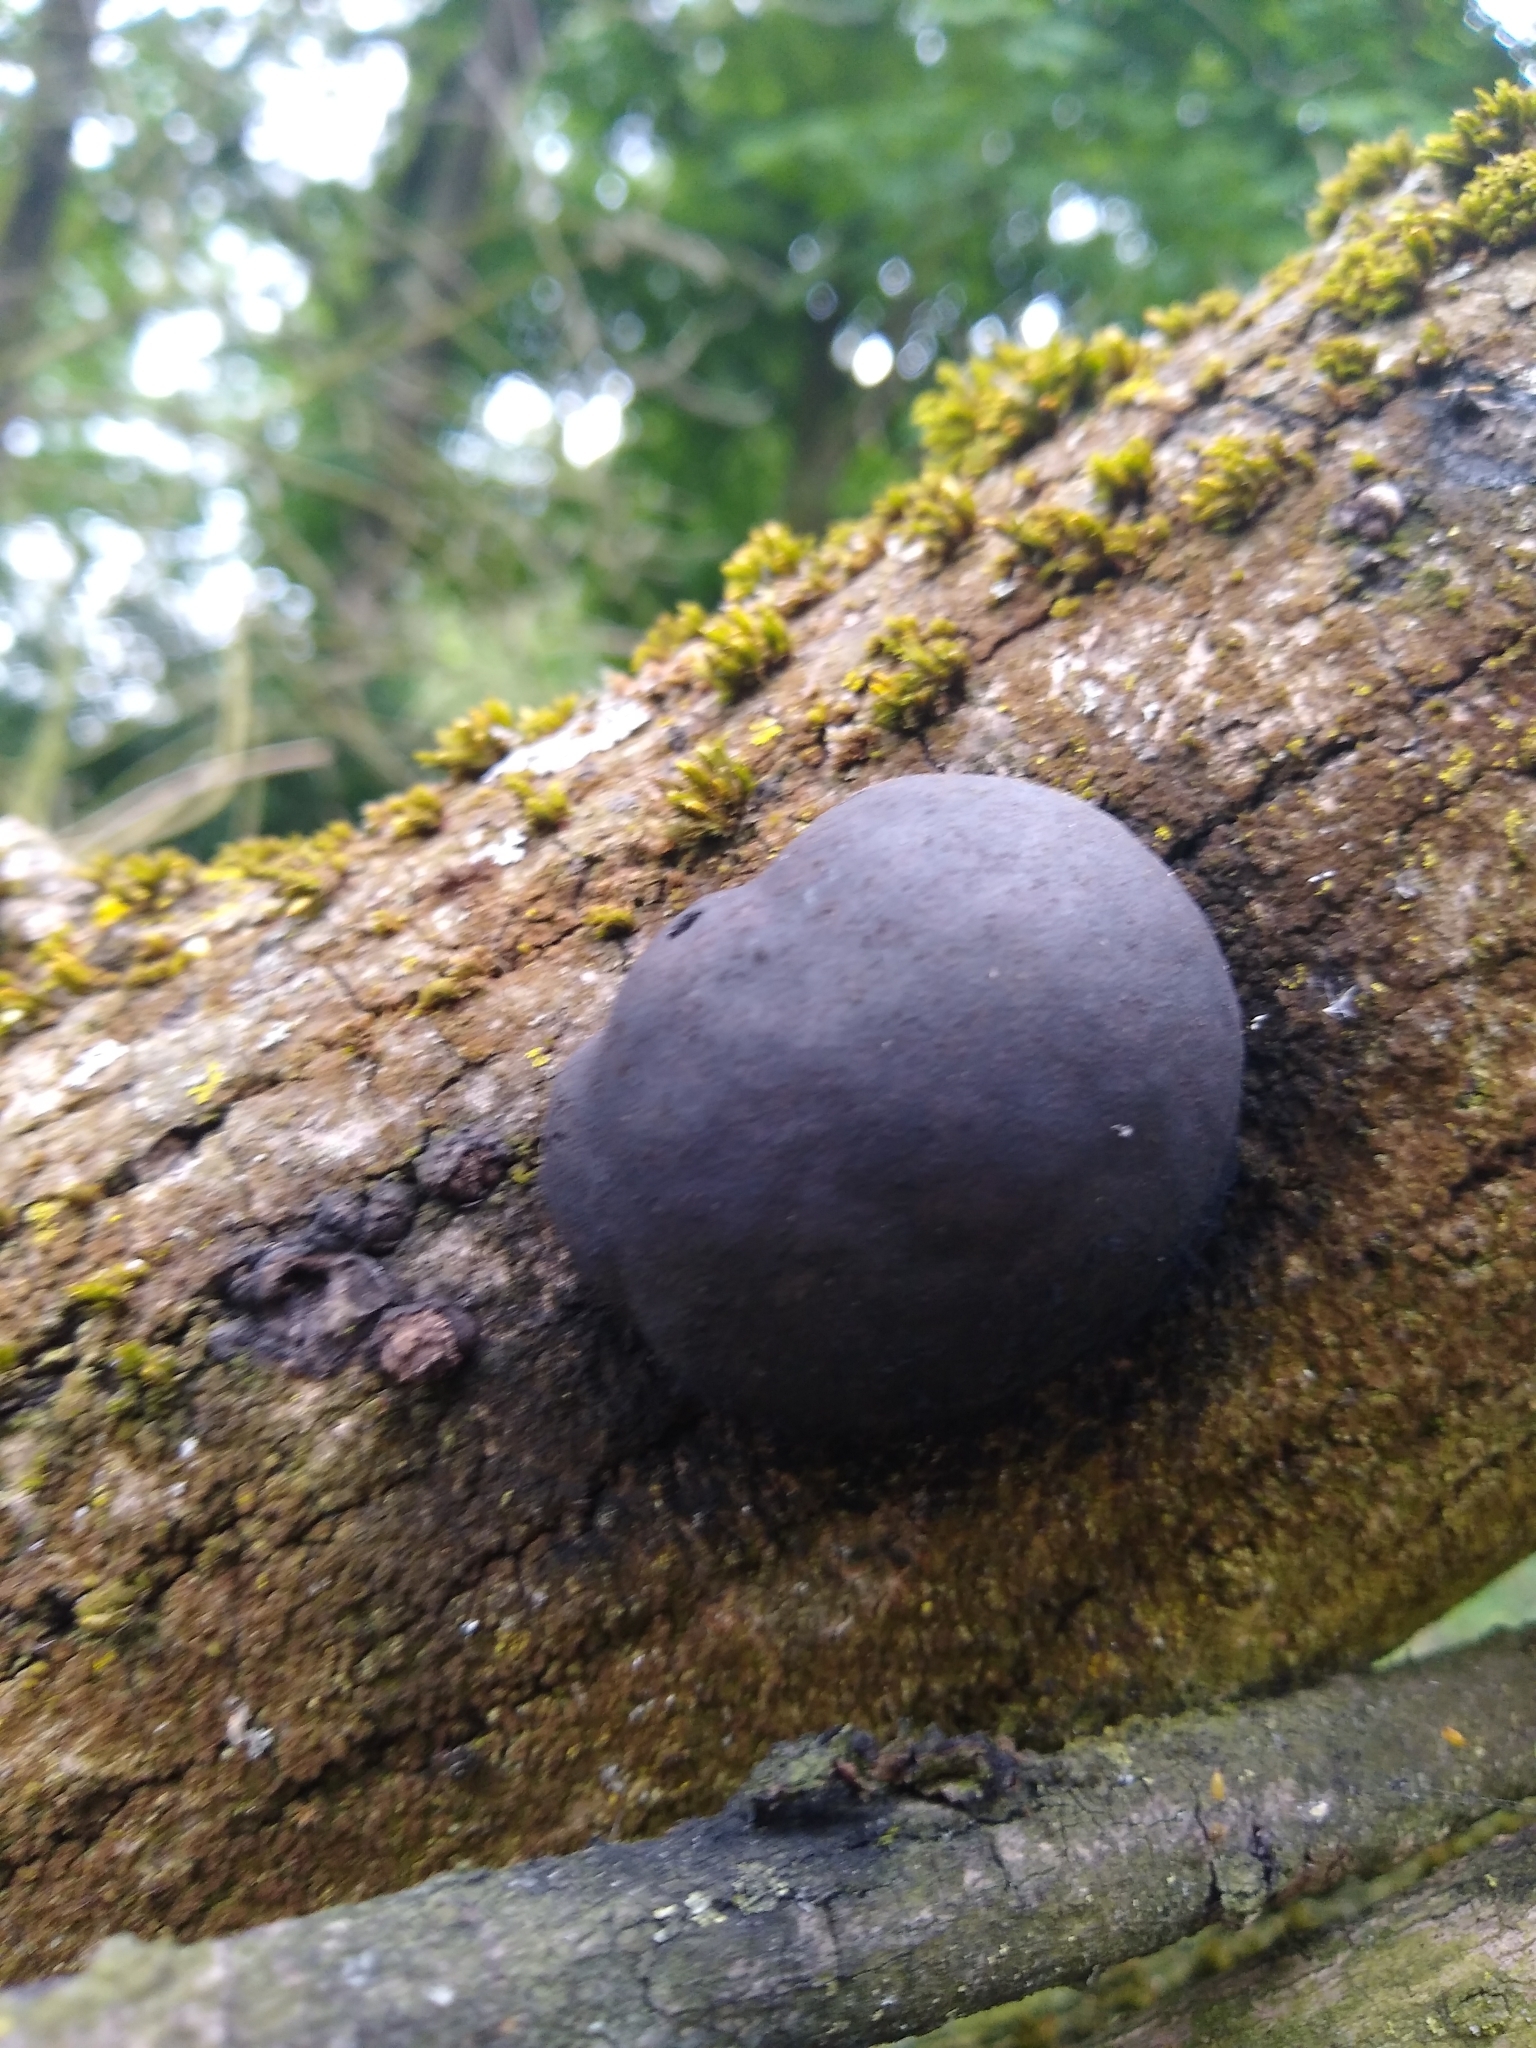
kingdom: Fungi
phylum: Ascomycota
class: Sordariomycetes
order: Xylariales
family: Hypoxylaceae
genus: Daldinia
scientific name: Daldinia concentrica
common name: Cramp balls
